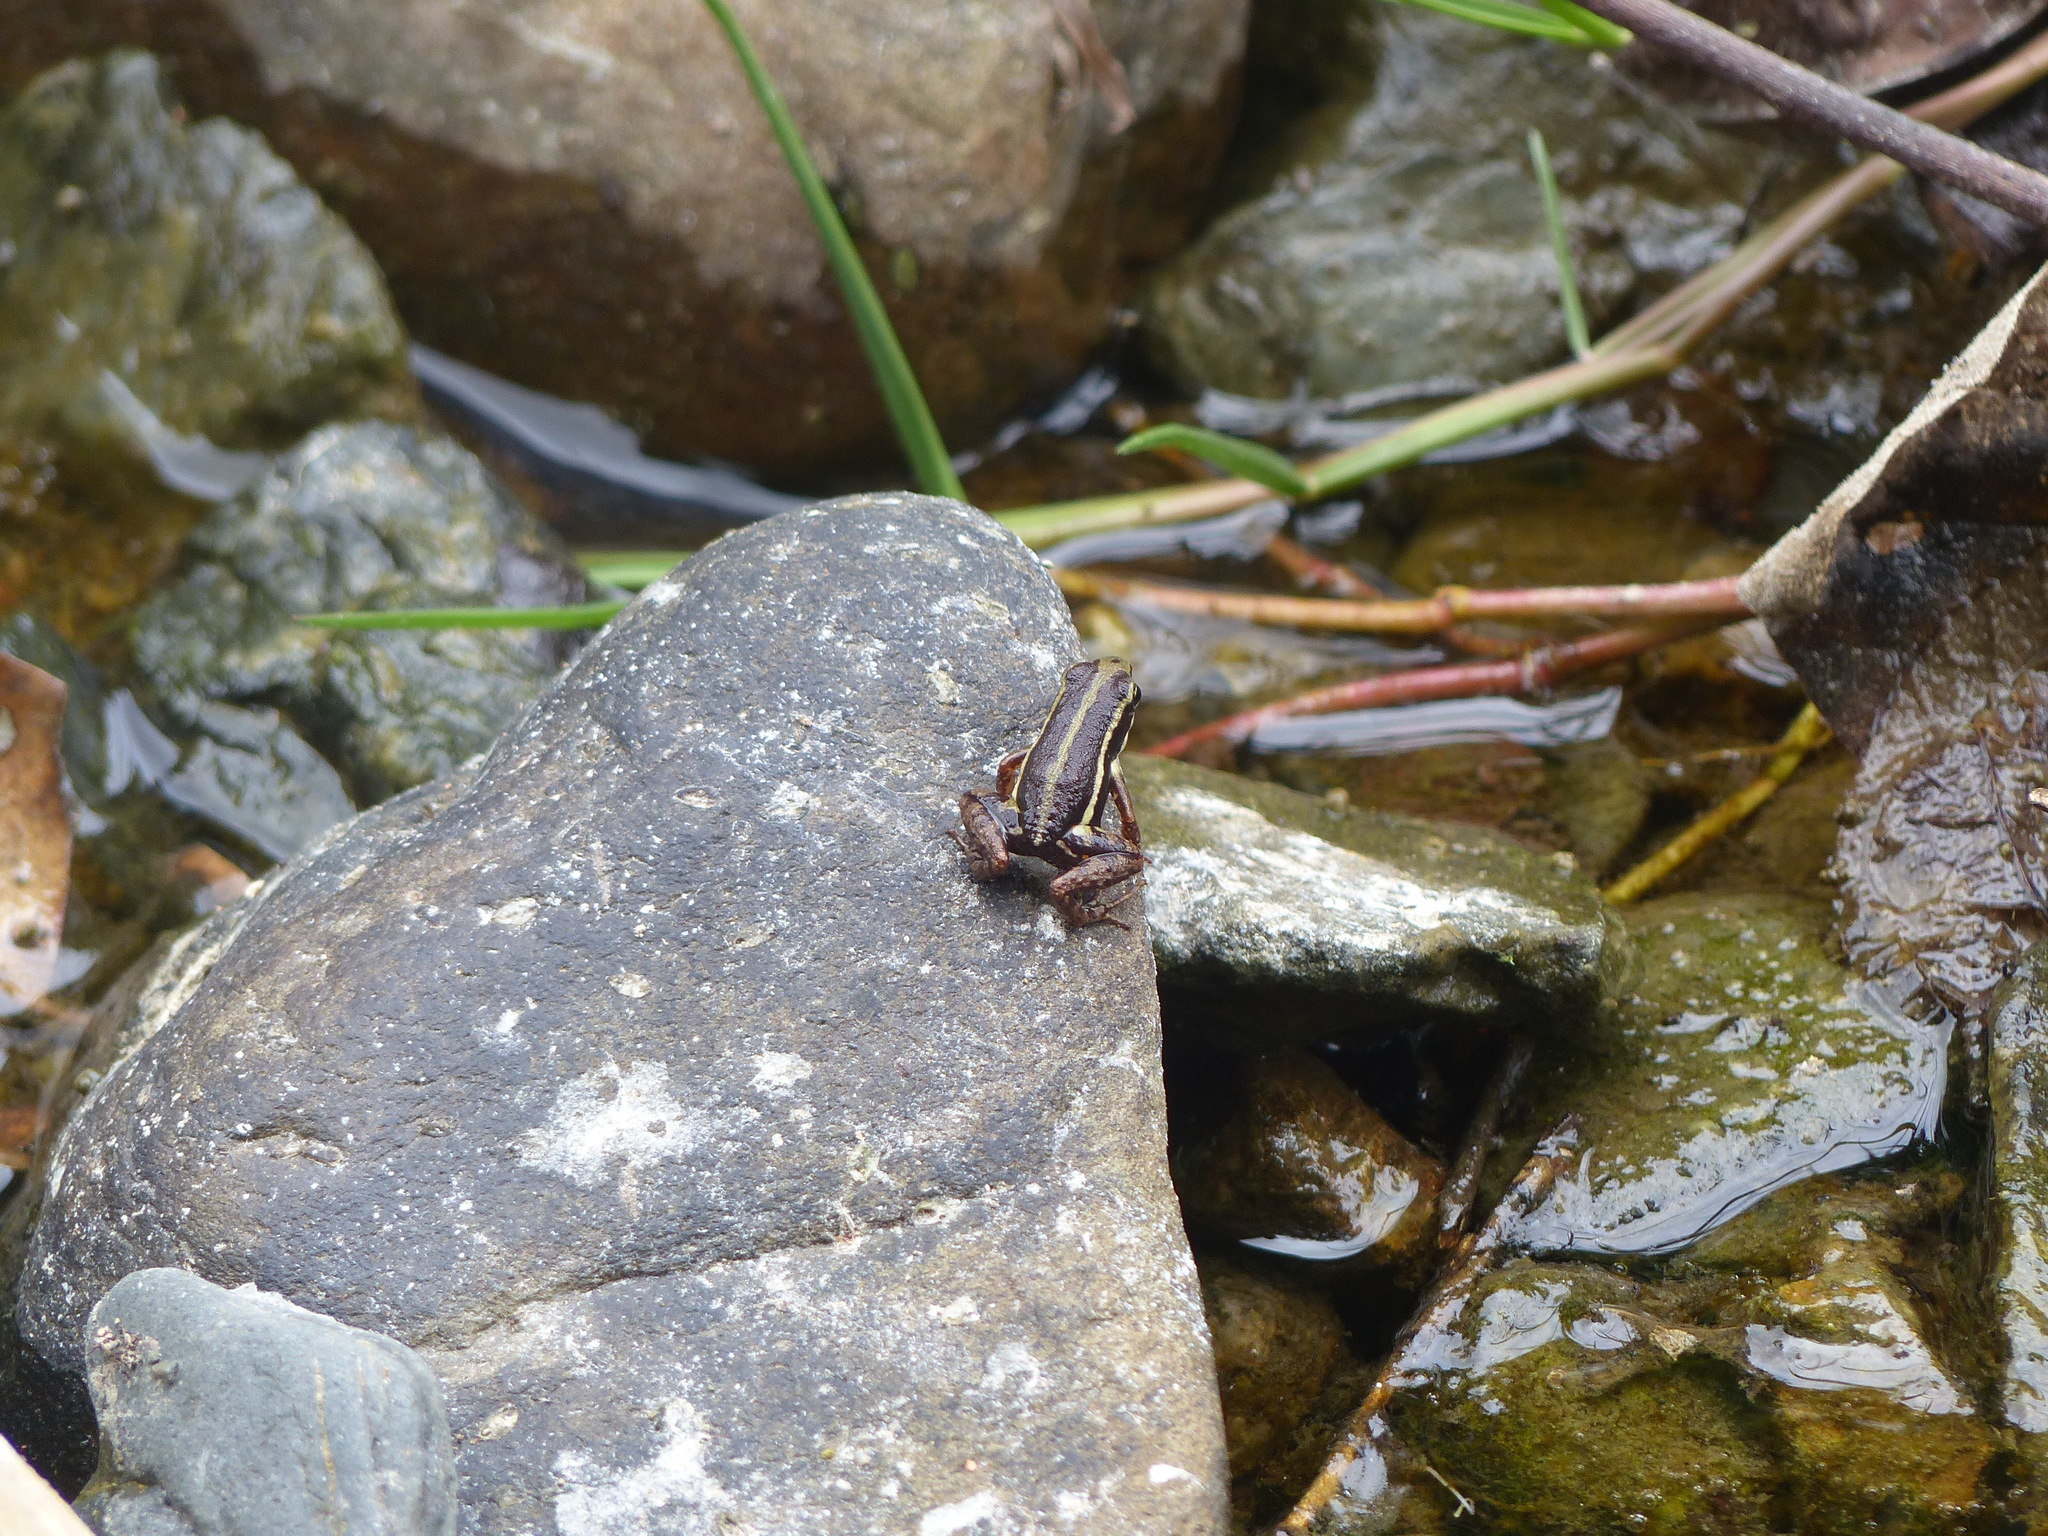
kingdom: Animalia
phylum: Chordata
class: Amphibia
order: Anura
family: Dendrobatidae
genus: Epipedobates
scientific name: Epipedobates anthonyi
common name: Anthony´s poison-arrow frog
